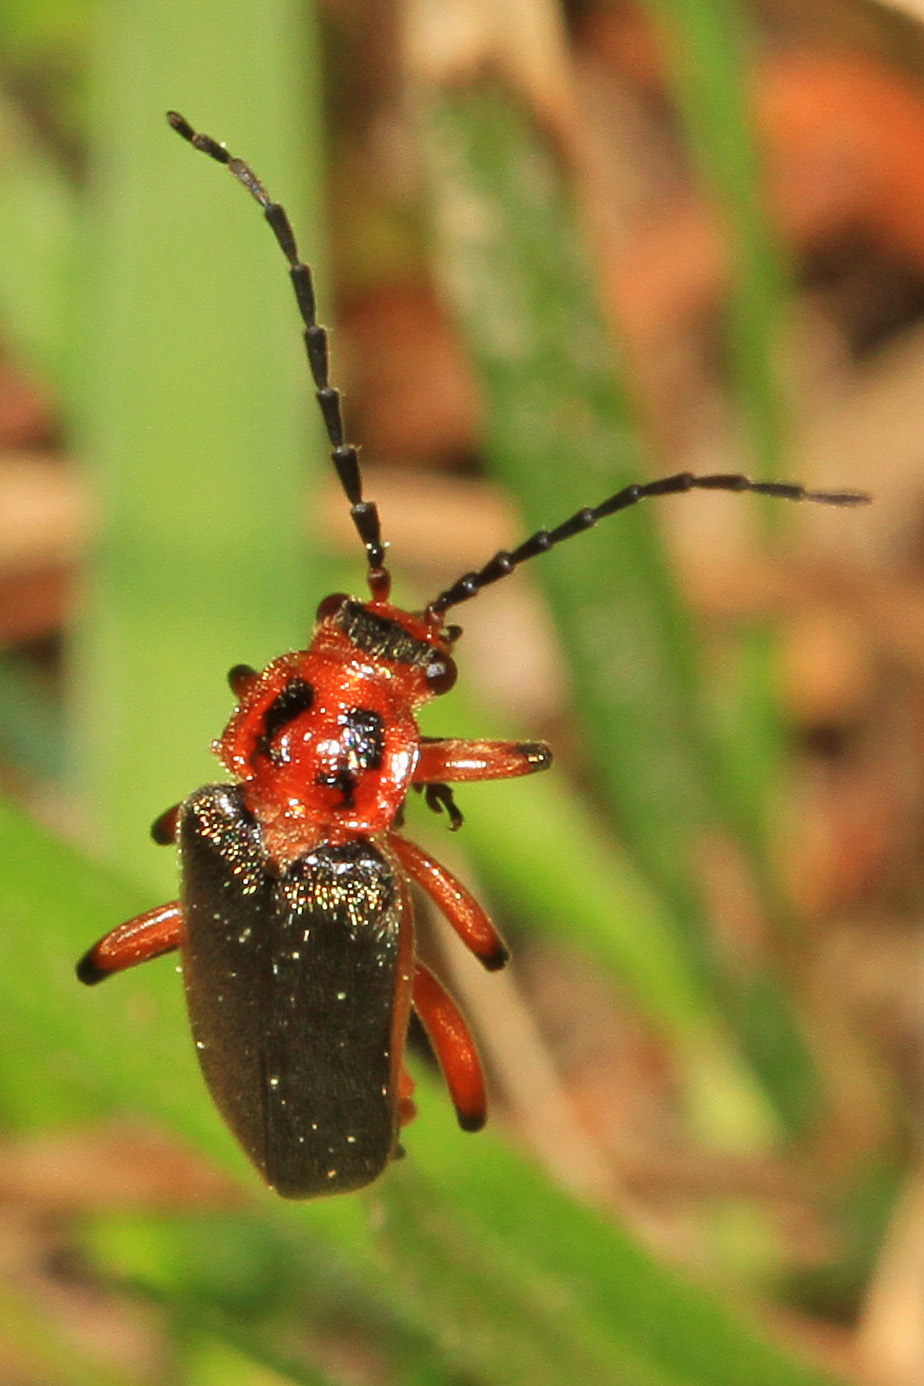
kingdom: Animalia
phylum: Arthropoda
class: Insecta
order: Coleoptera
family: Cantharidae
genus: Atalantycha
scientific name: Atalantycha bilineata
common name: Two-lined leatherwing
